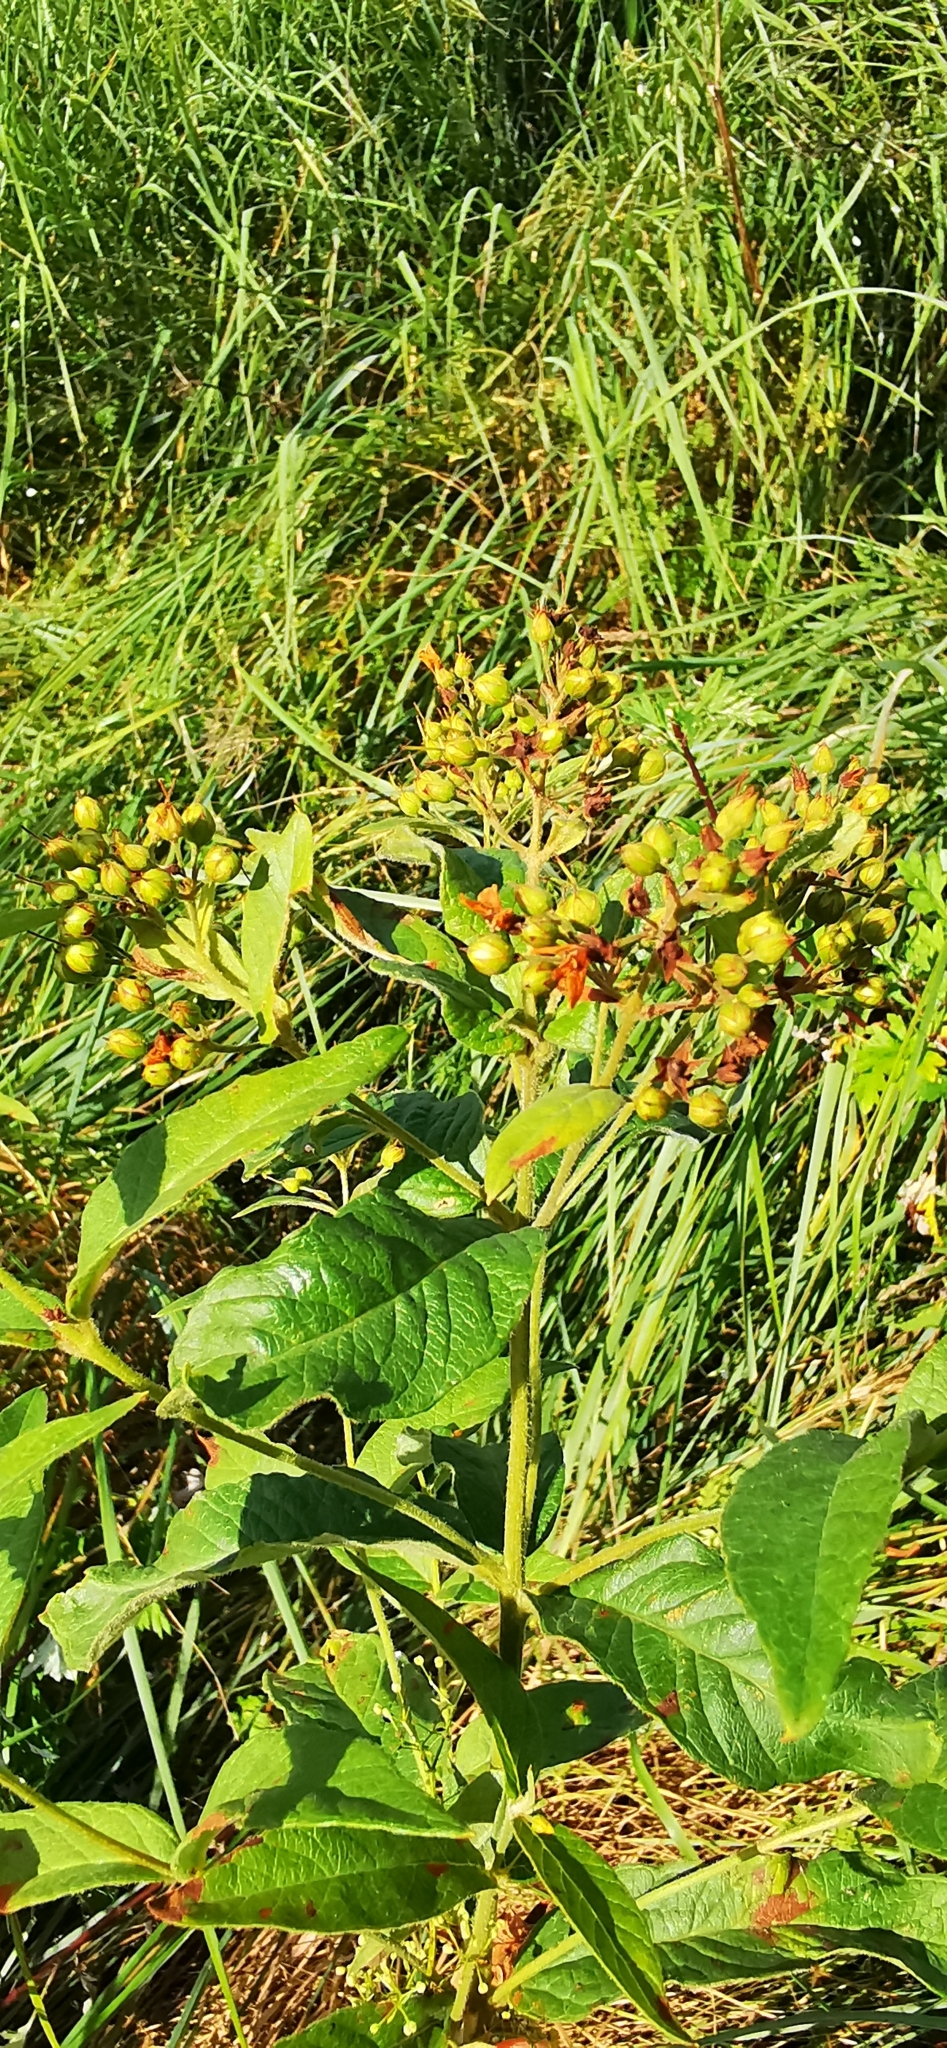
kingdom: Plantae
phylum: Tracheophyta
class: Magnoliopsida
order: Ericales
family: Primulaceae
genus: Lysimachia
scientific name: Lysimachia vulgaris
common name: Yellow loosestrife
